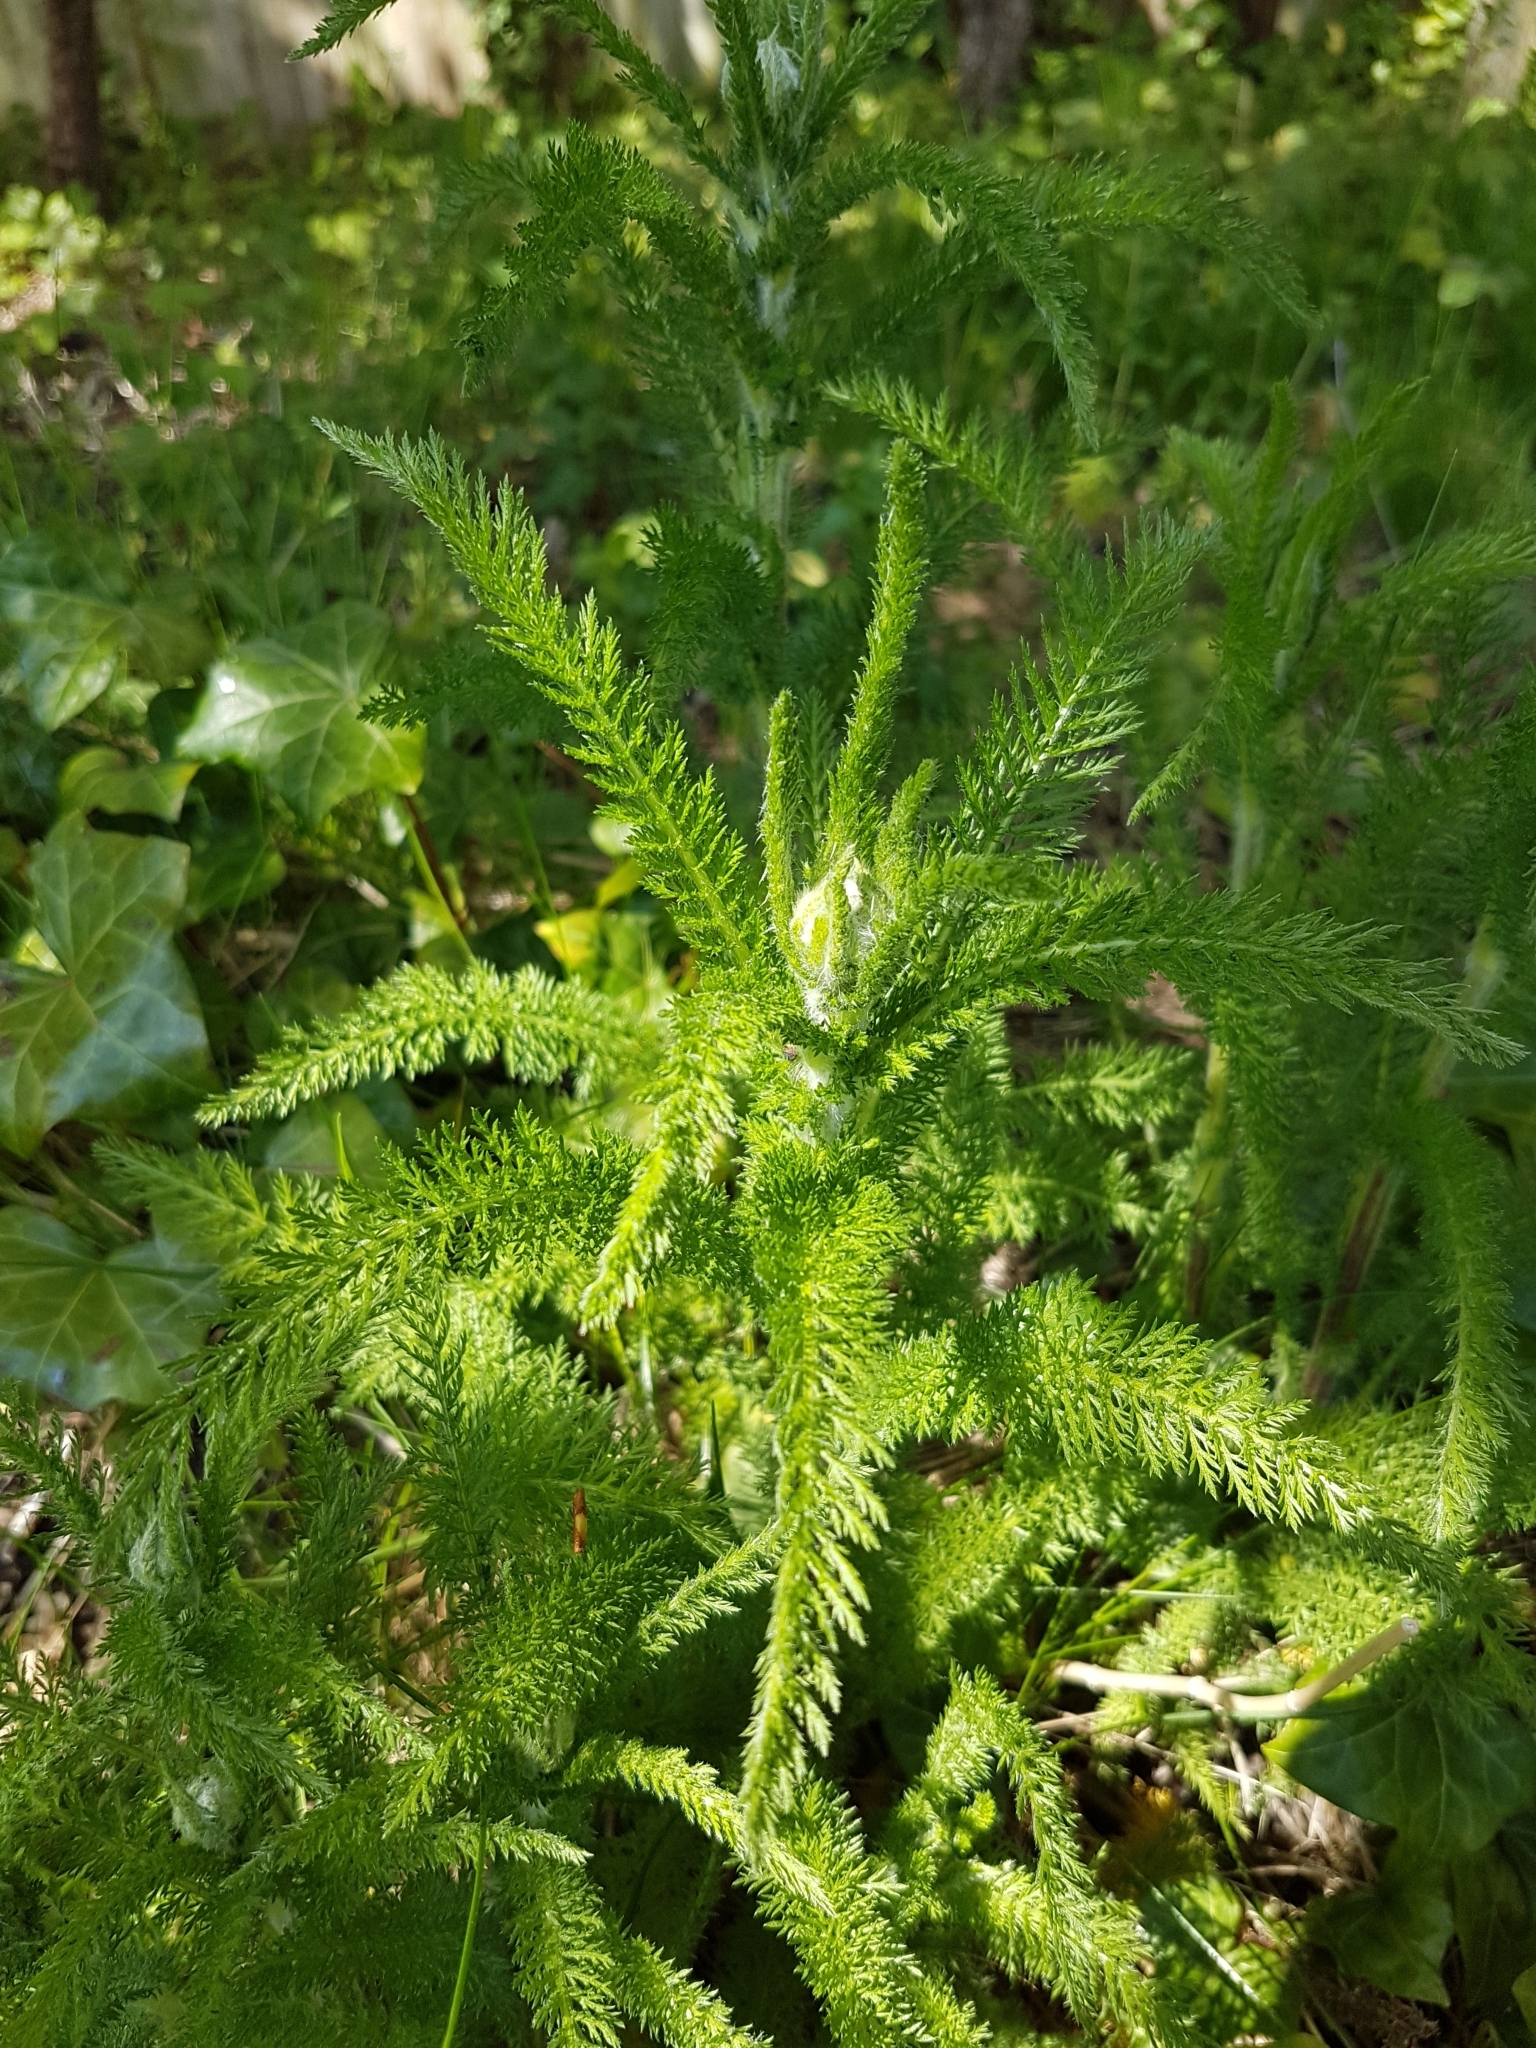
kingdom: Plantae
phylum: Tracheophyta
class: Magnoliopsida
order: Asterales
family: Asteraceae
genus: Achillea
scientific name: Achillea millefolium
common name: Yarrow
